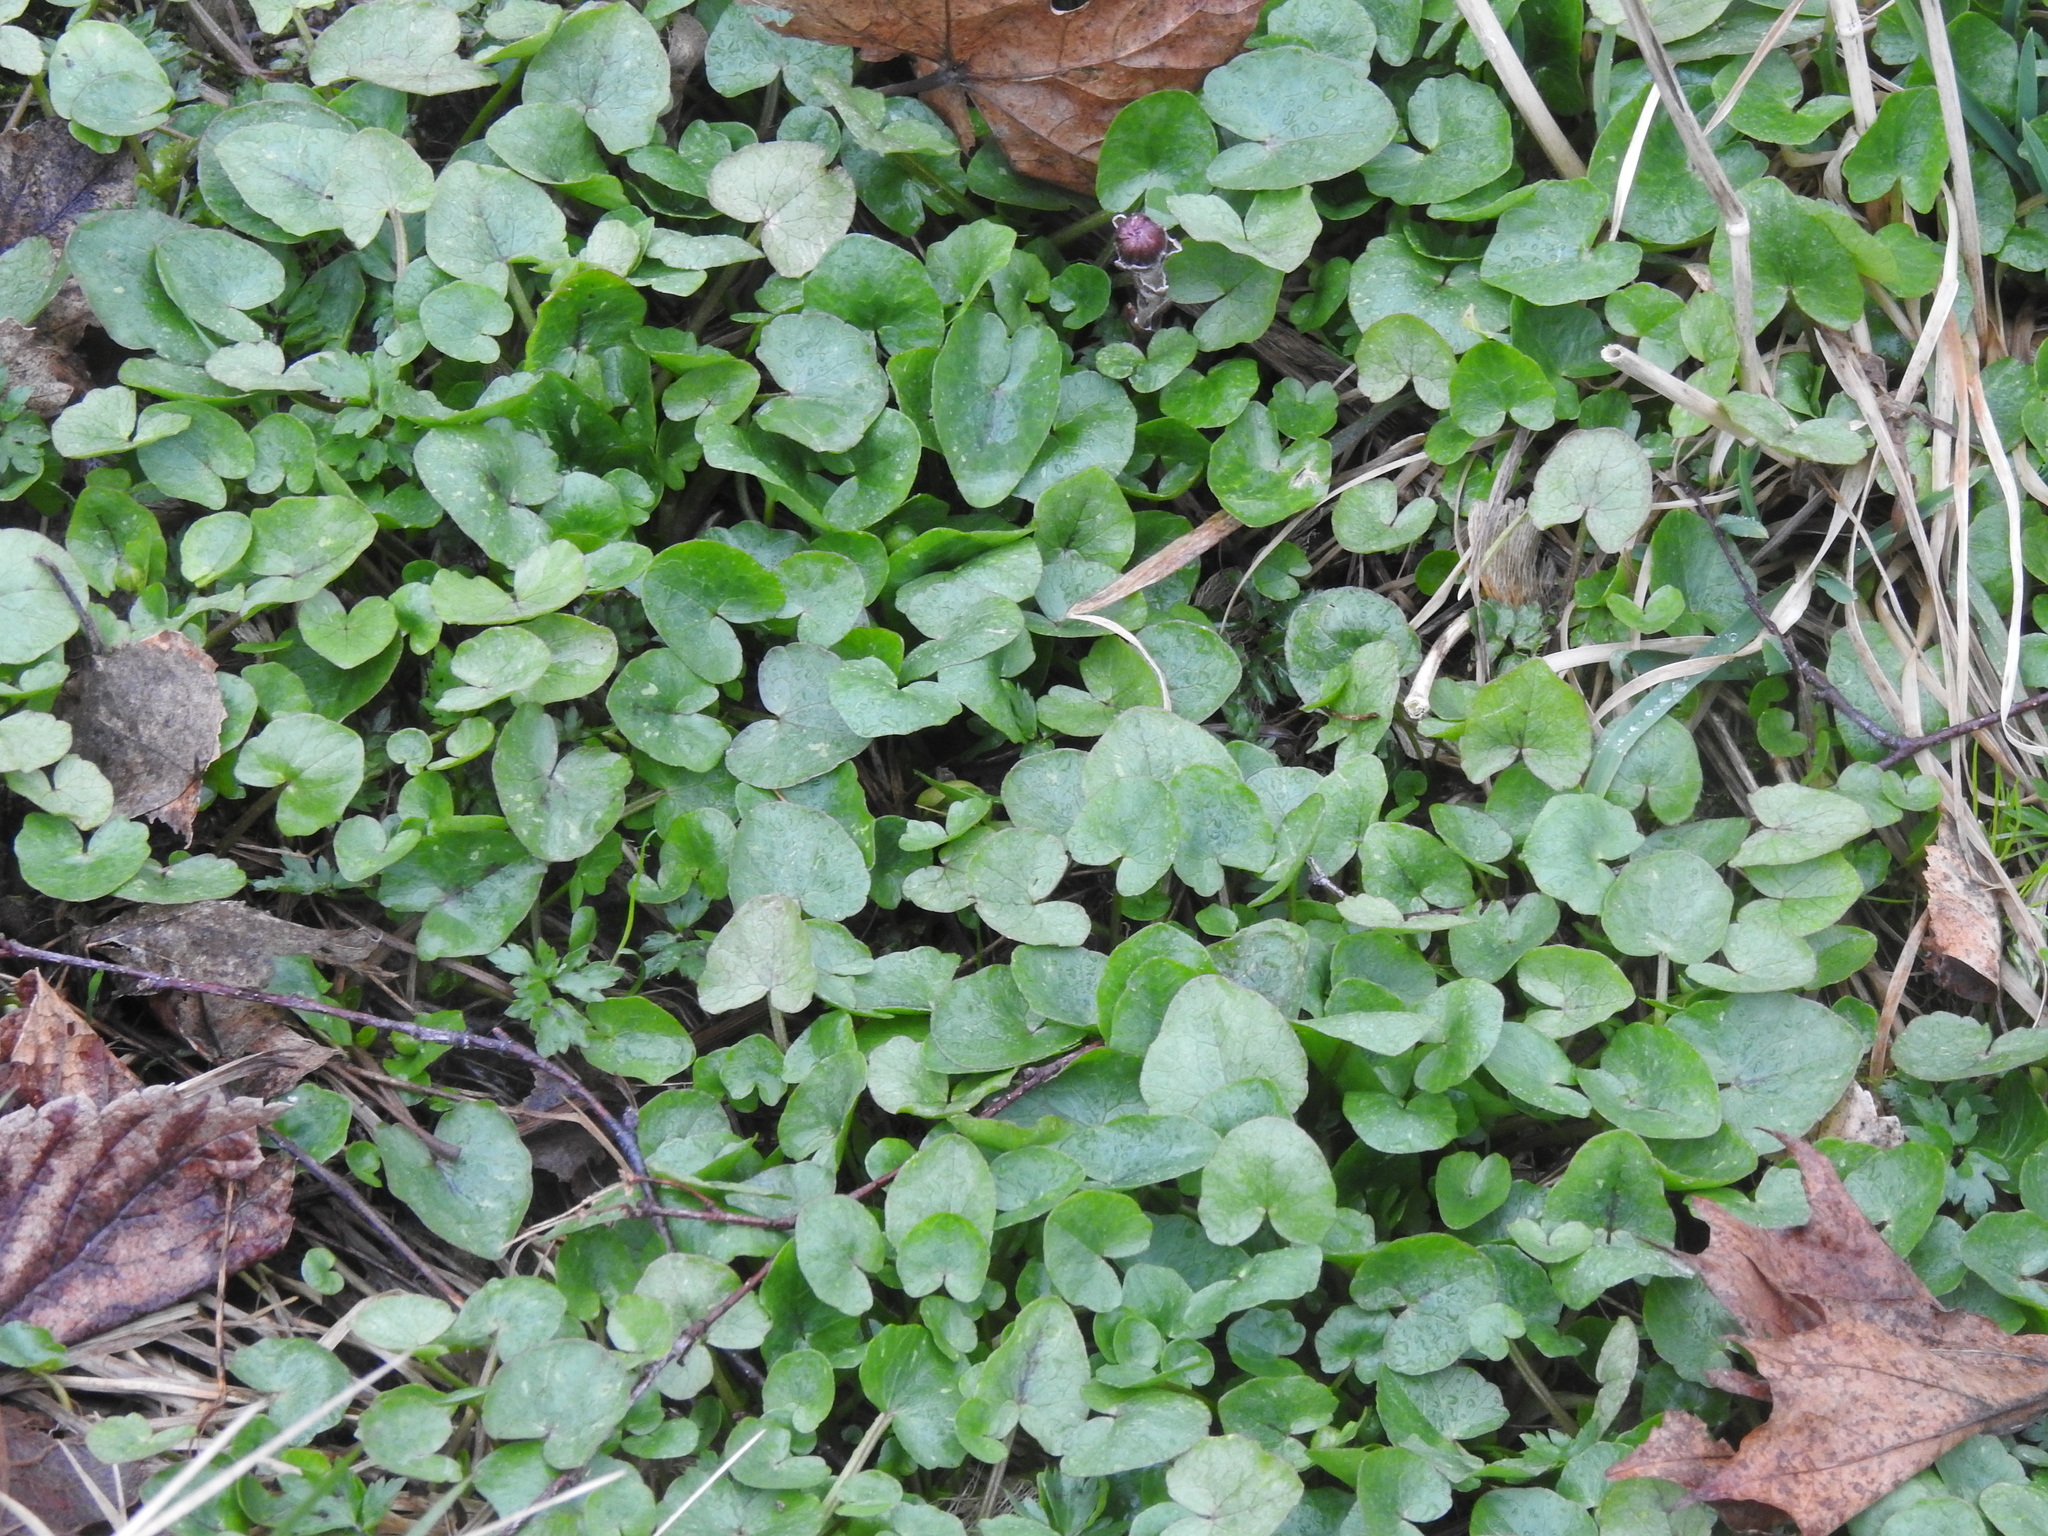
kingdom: Plantae
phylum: Tracheophyta
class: Magnoliopsida
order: Ranunculales
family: Ranunculaceae
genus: Ficaria
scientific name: Ficaria verna
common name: Lesser celandine
